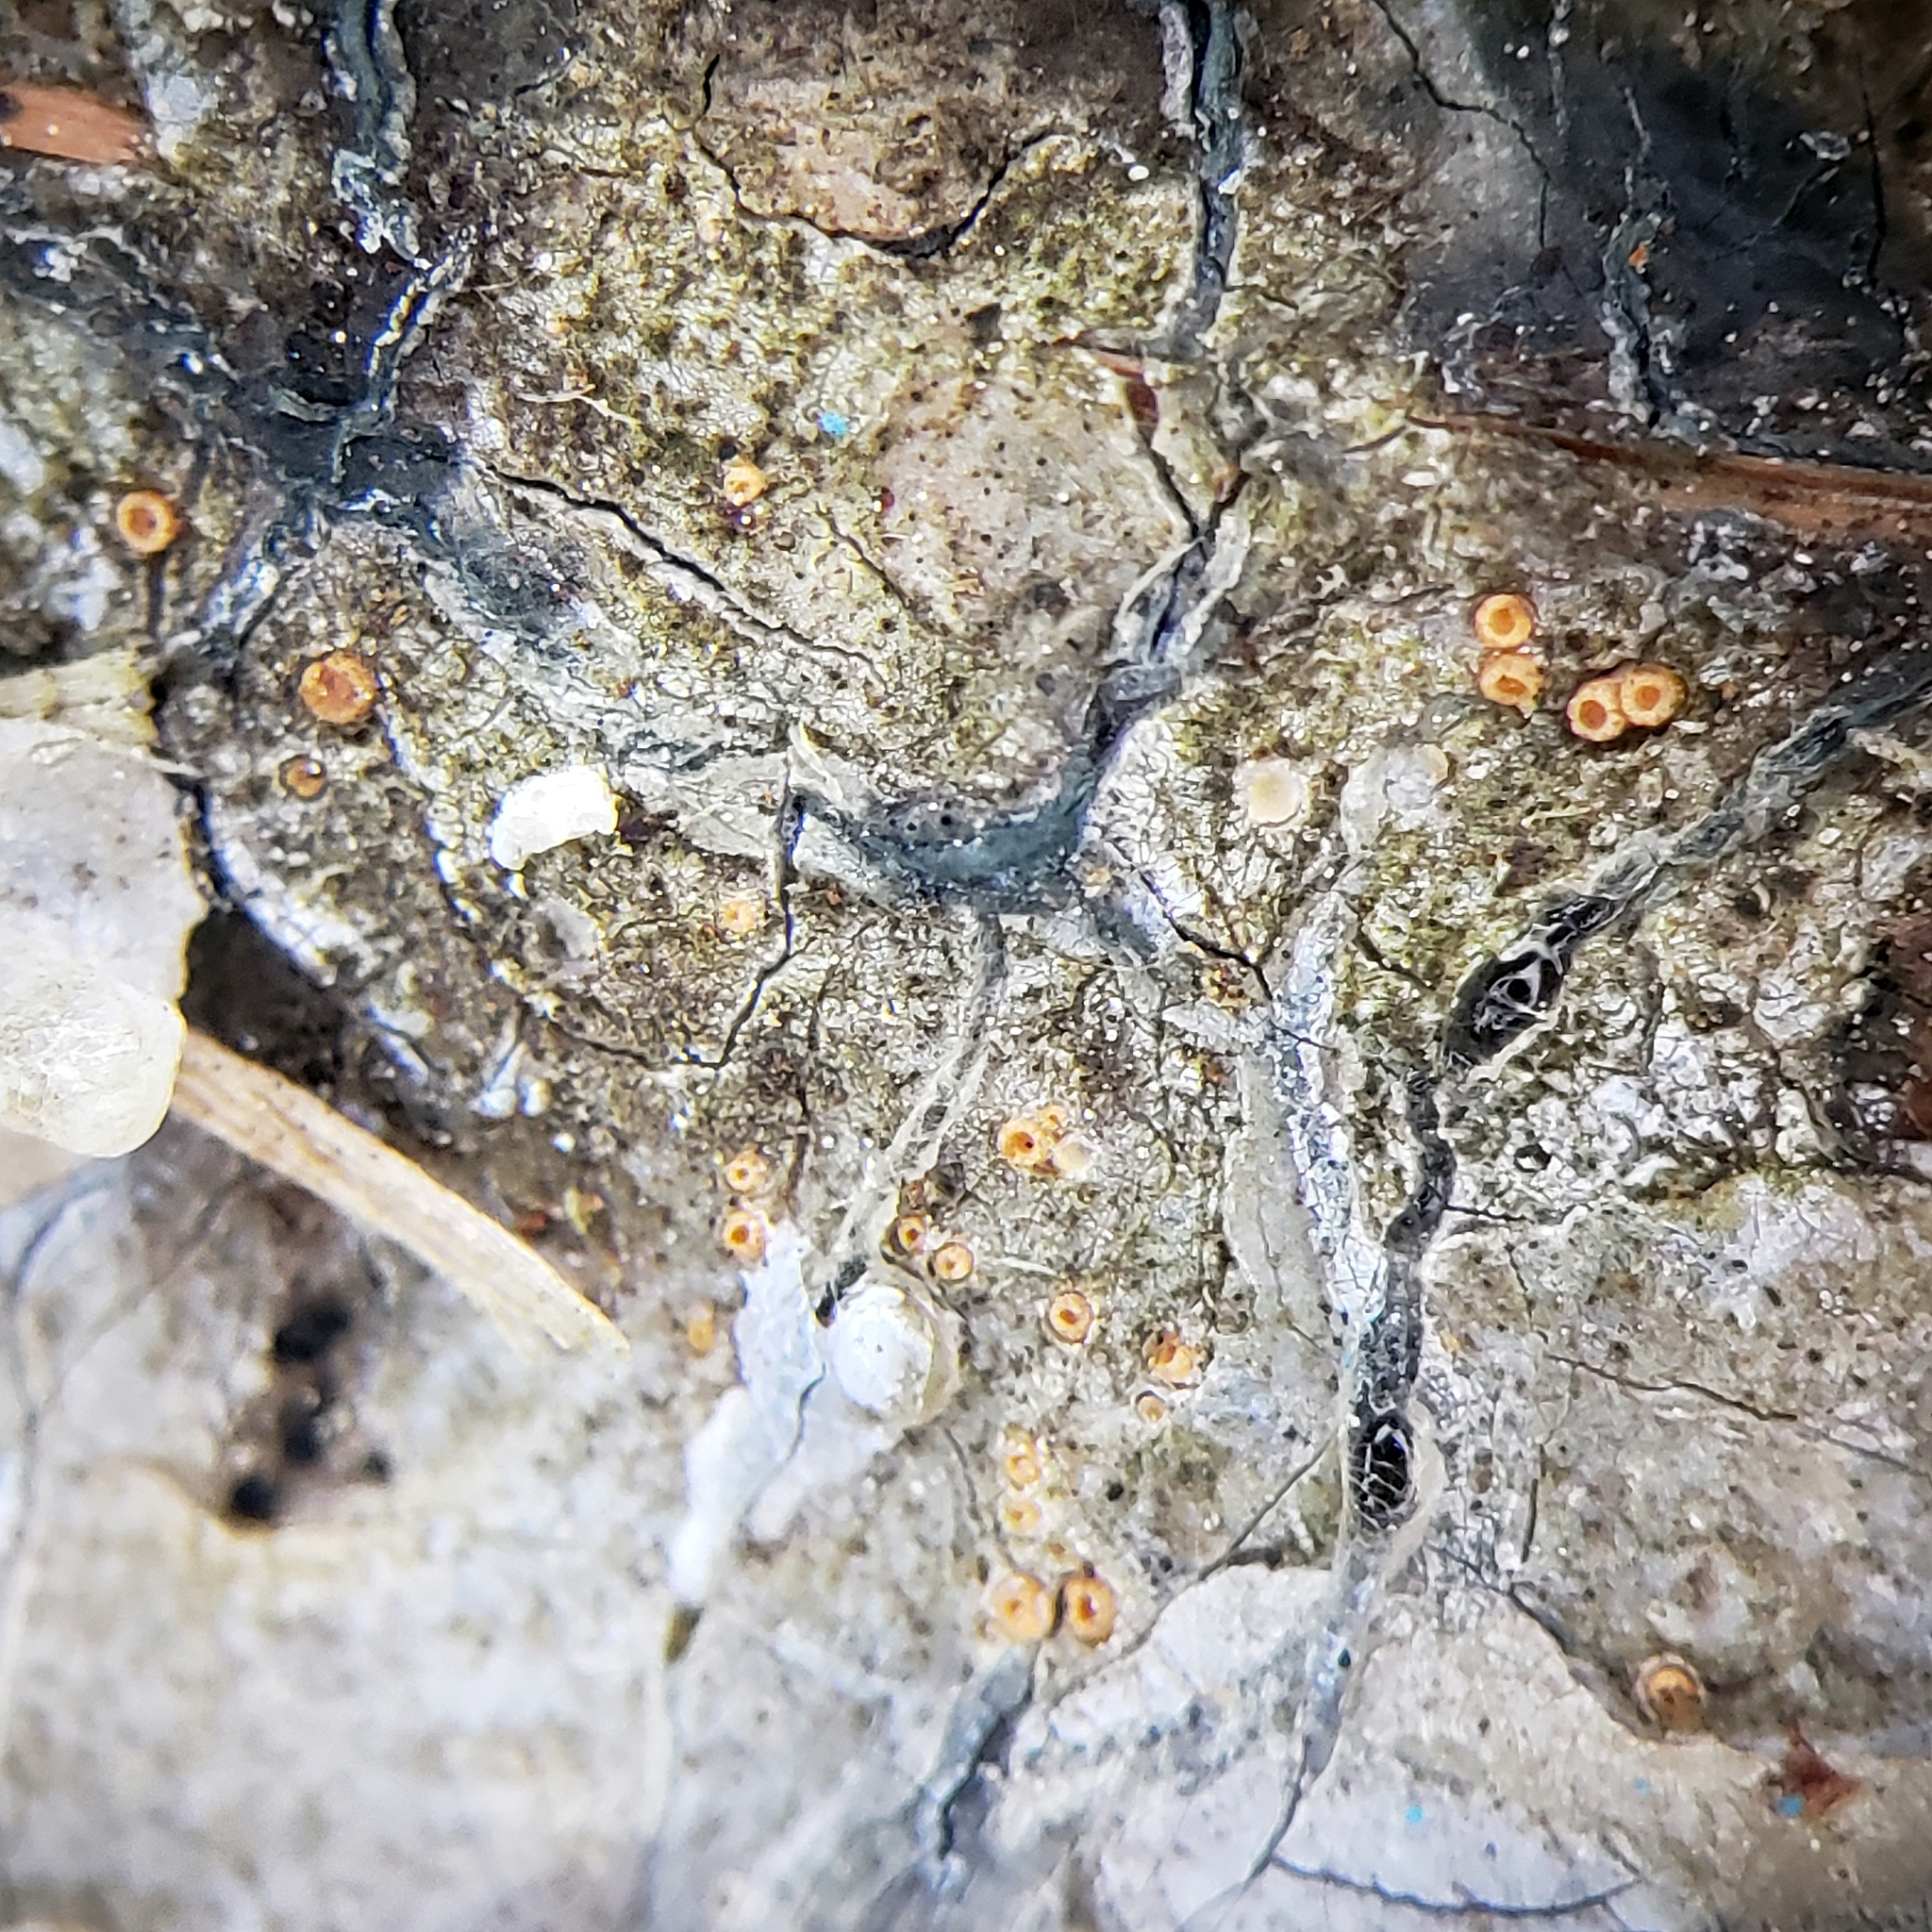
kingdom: Fungi
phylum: Ascomycota
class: Sareomycetes
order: Sareales
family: Sareaceae
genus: Sarea
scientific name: Sarea resinae
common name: Sarea lichen
